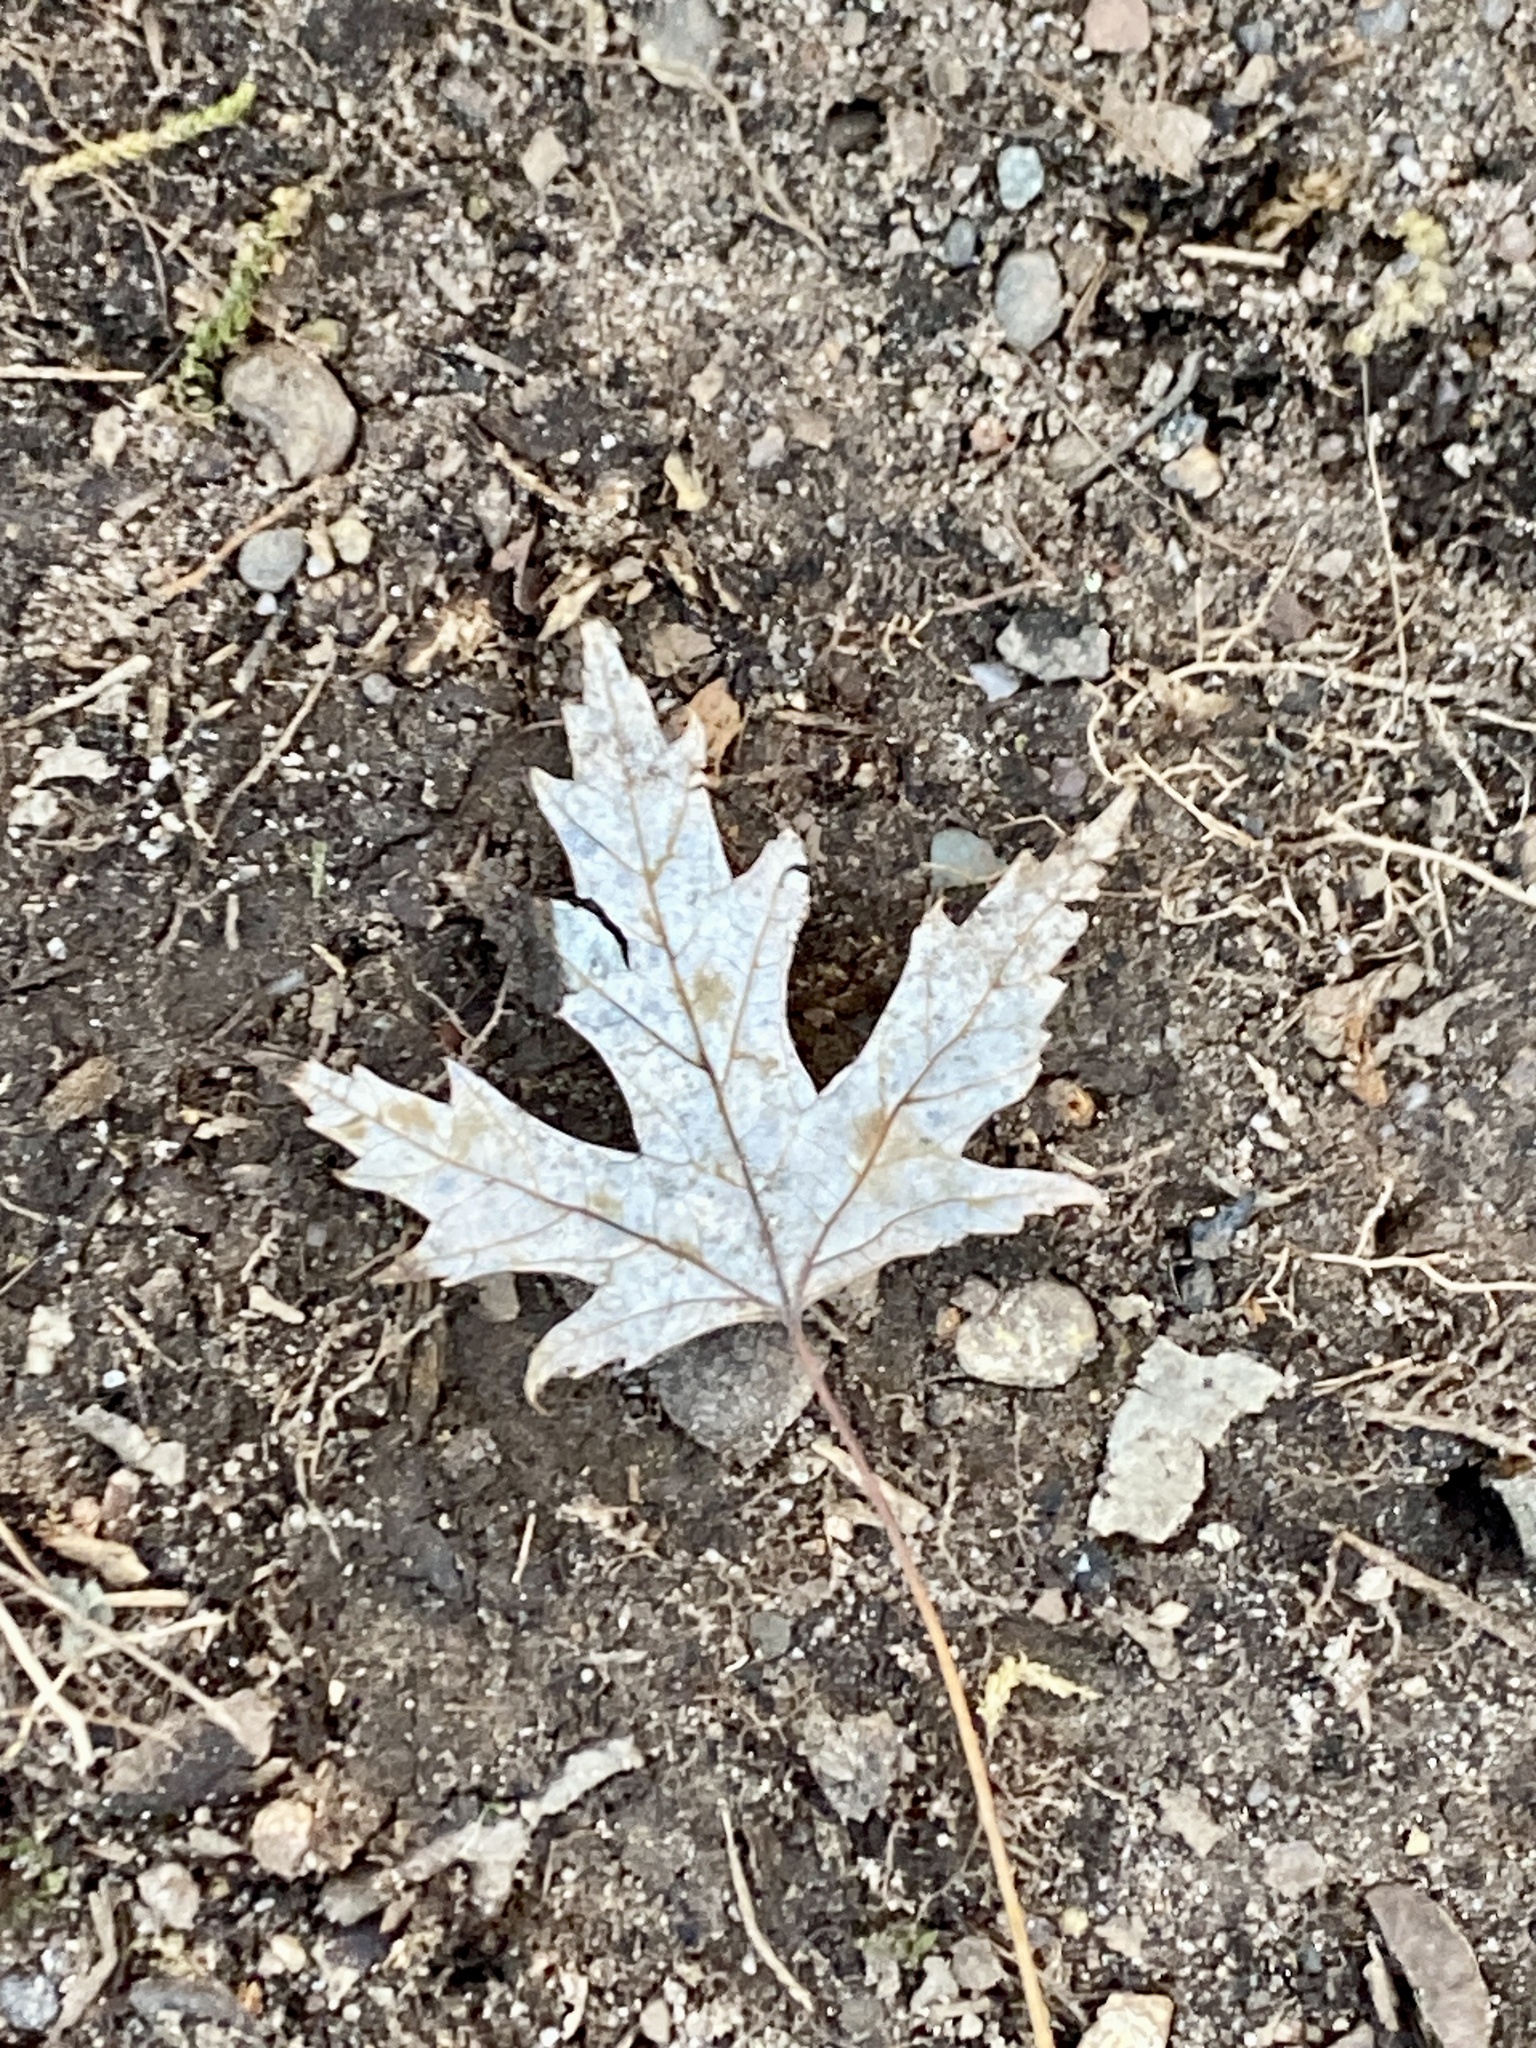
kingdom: Plantae
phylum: Tracheophyta
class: Magnoliopsida
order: Sapindales
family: Sapindaceae
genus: Acer
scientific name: Acer saccharinum
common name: Silver maple
